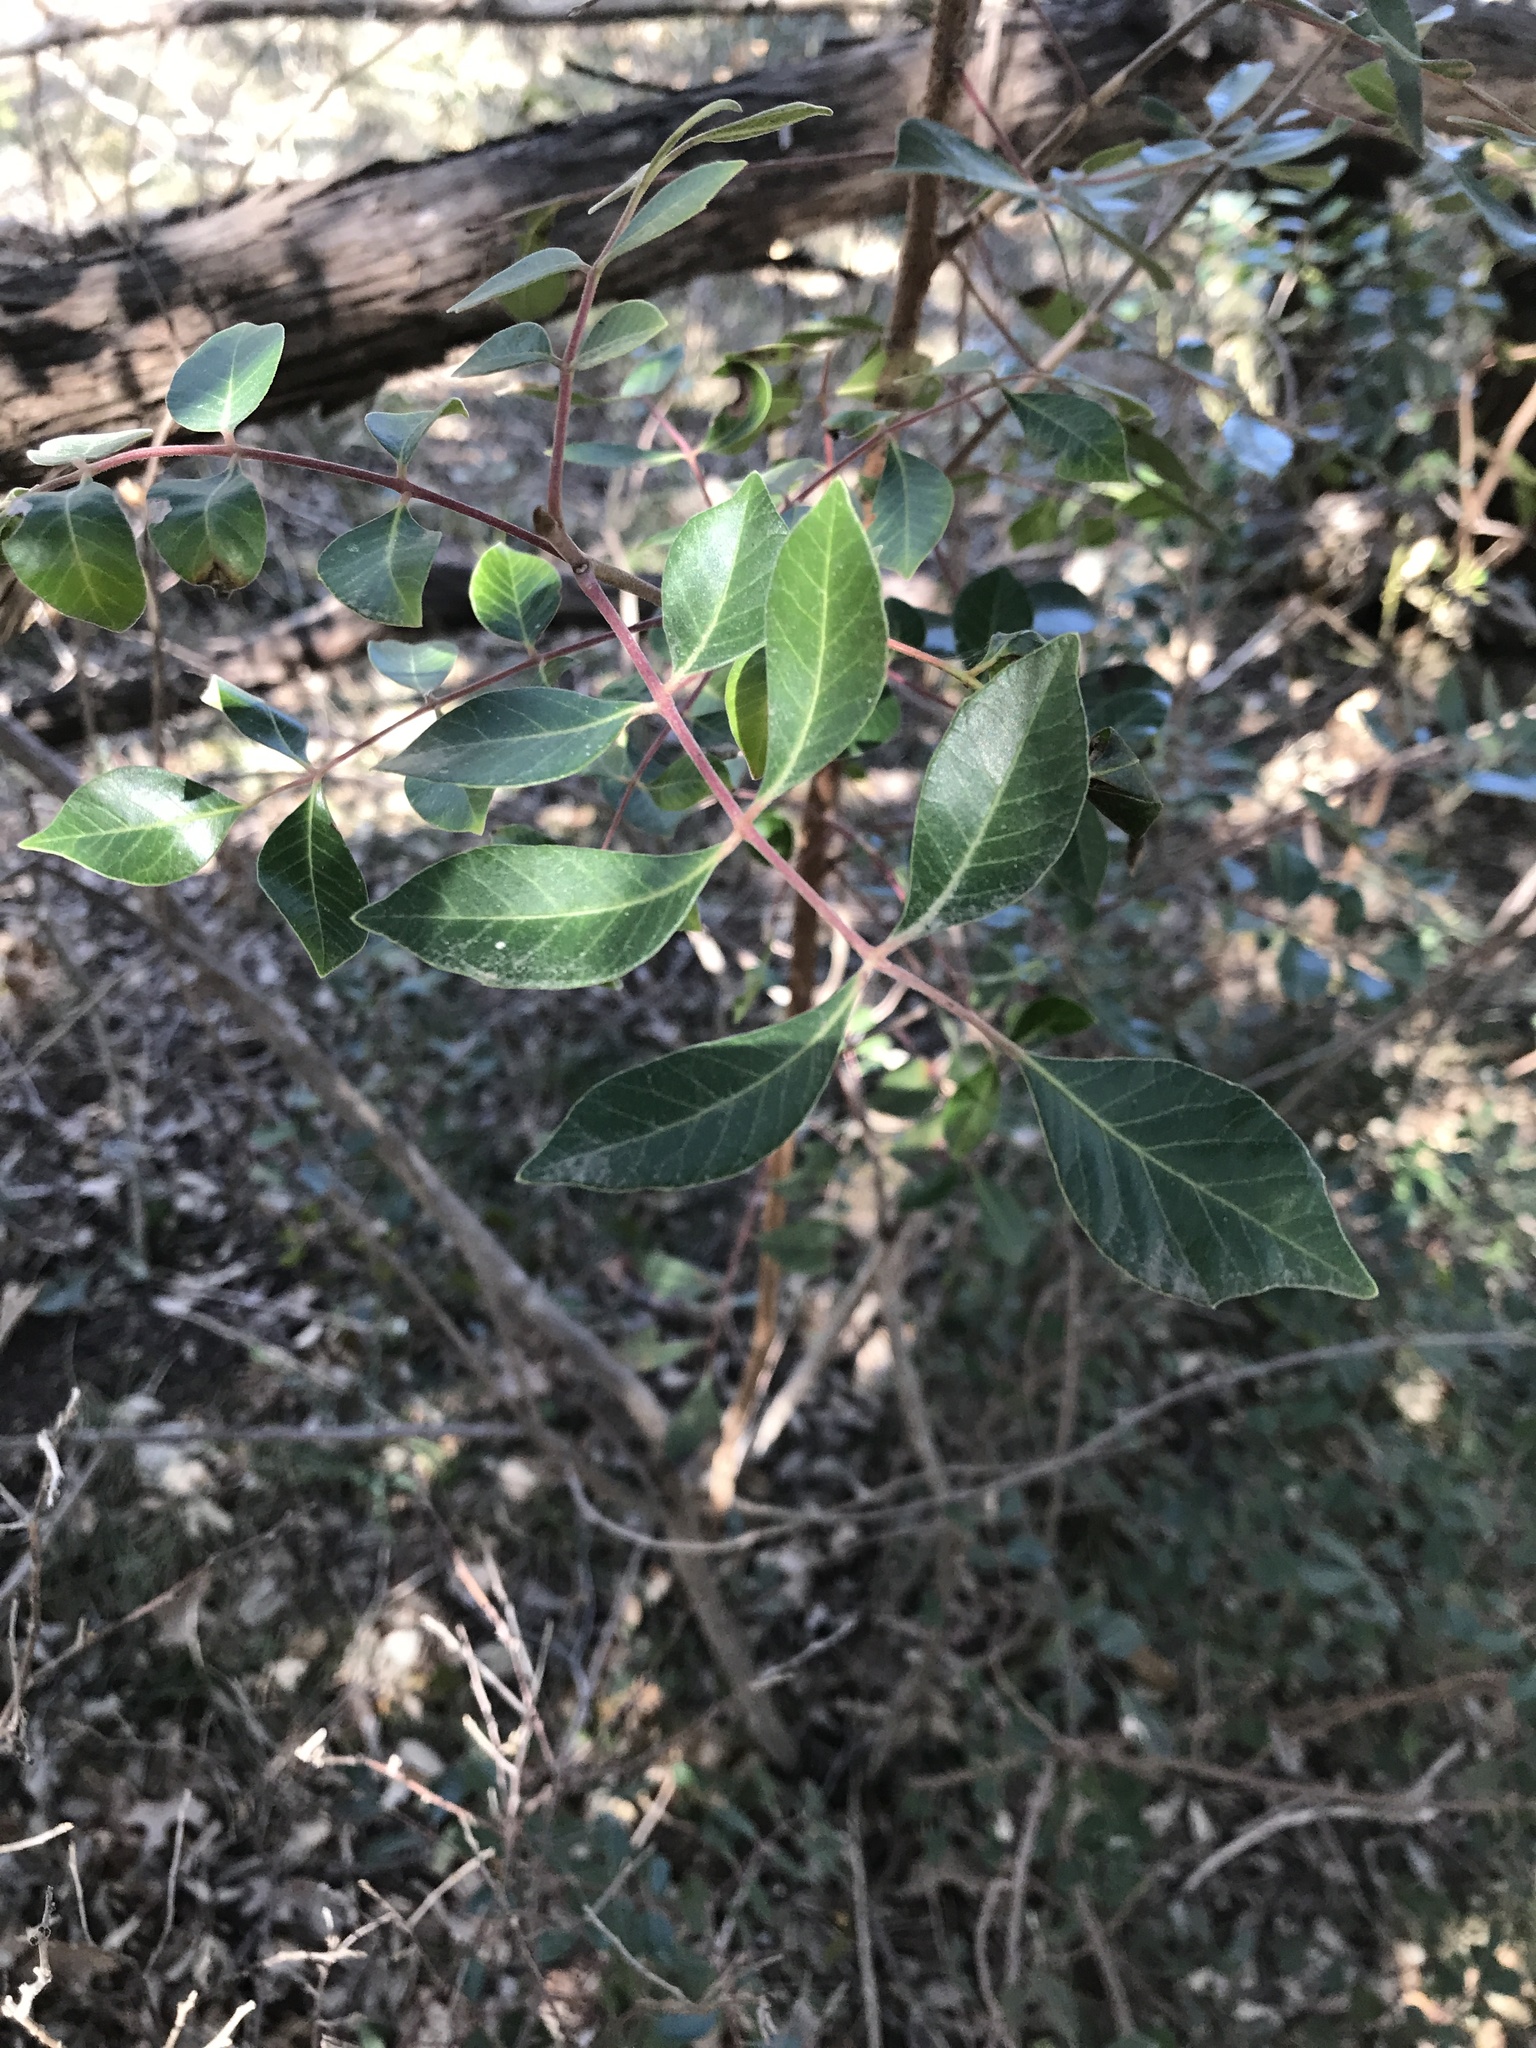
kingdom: Plantae
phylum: Tracheophyta
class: Magnoliopsida
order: Sapindales
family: Anacardiaceae
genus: Rhus
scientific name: Rhus virens
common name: Evergreen sumac
